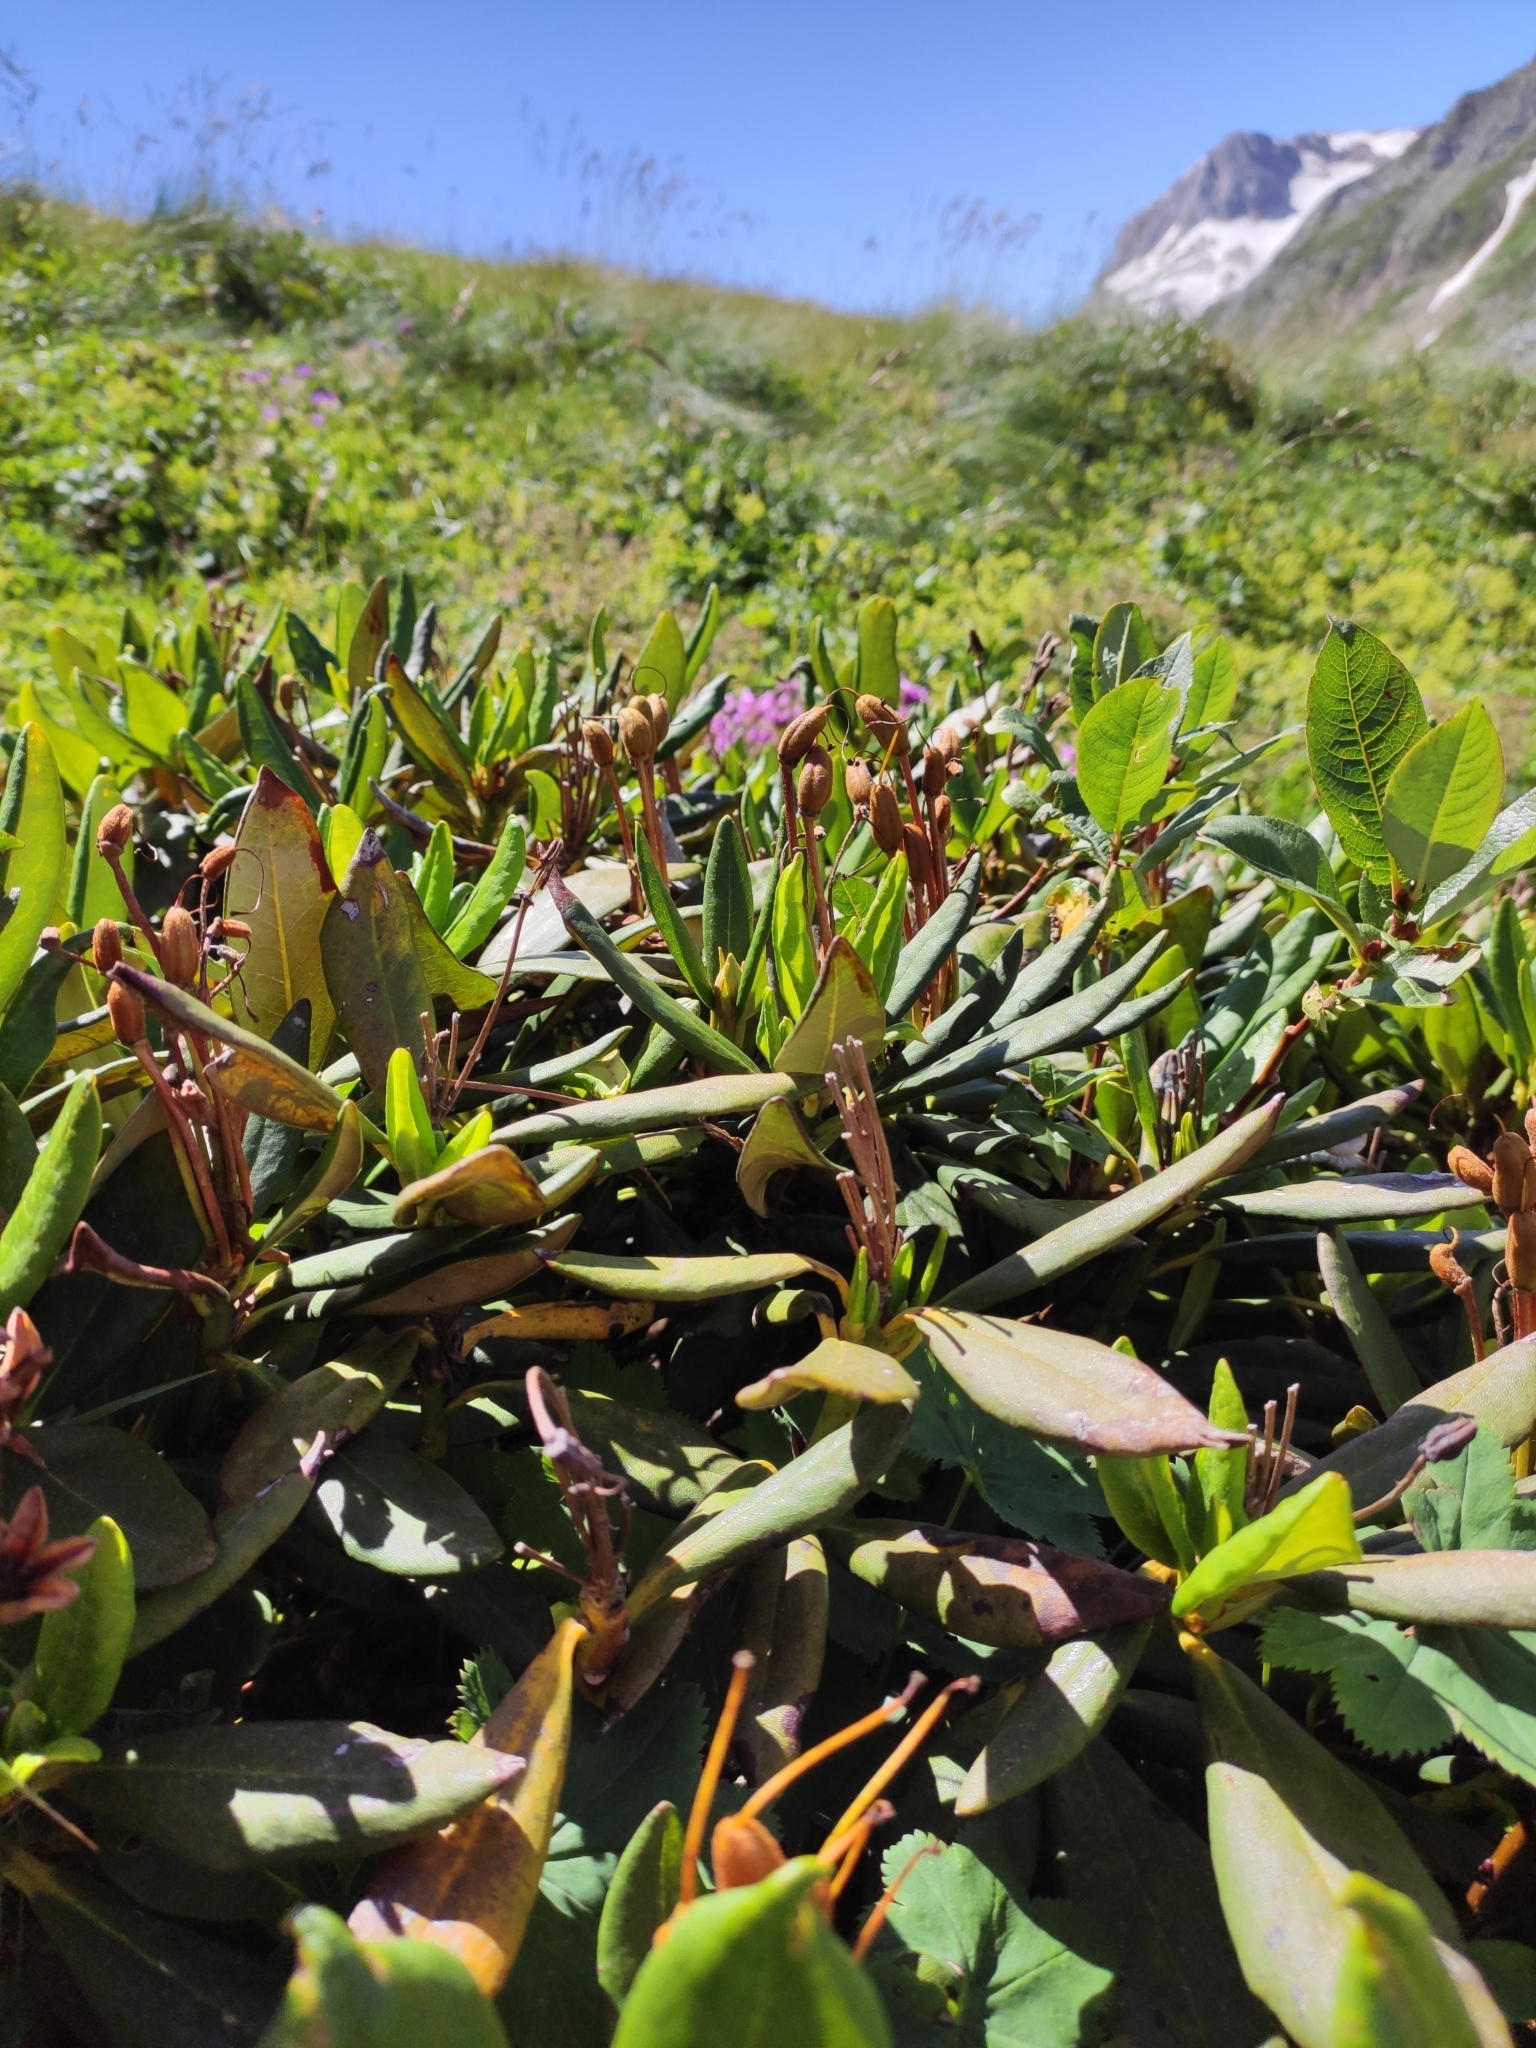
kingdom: Plantae
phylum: Tracheophyta
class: Magnoliopsida
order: Ericales
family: Ericaceae
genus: Rhododendron
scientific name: Rhododendron caucasicum
